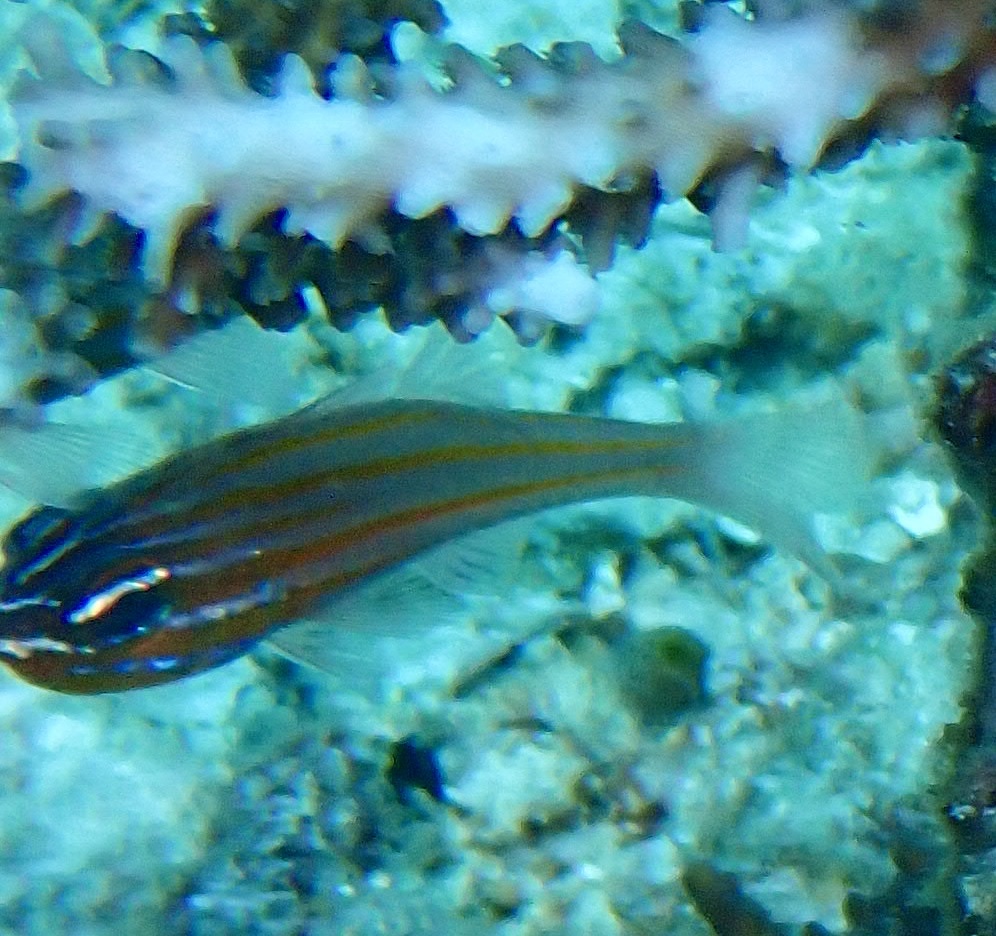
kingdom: Animalia
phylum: Chordata
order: Perciformes
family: Apogonidae
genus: Ostorhinchus
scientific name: Ostorhinchus cyanosoma
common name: Yellow-striped cardinalfish
